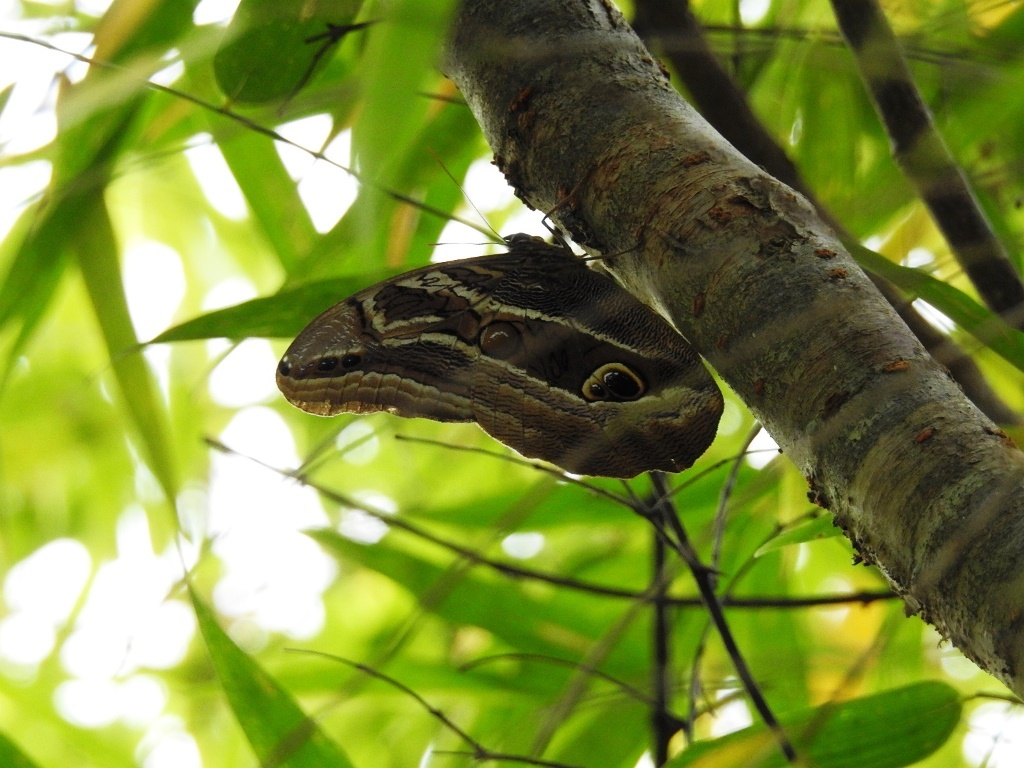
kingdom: Animalia
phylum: Arthropoda
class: Insecta
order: Lepidoptera
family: Nymphalidae
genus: Eryphanis
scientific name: Eryphanis aesacus
